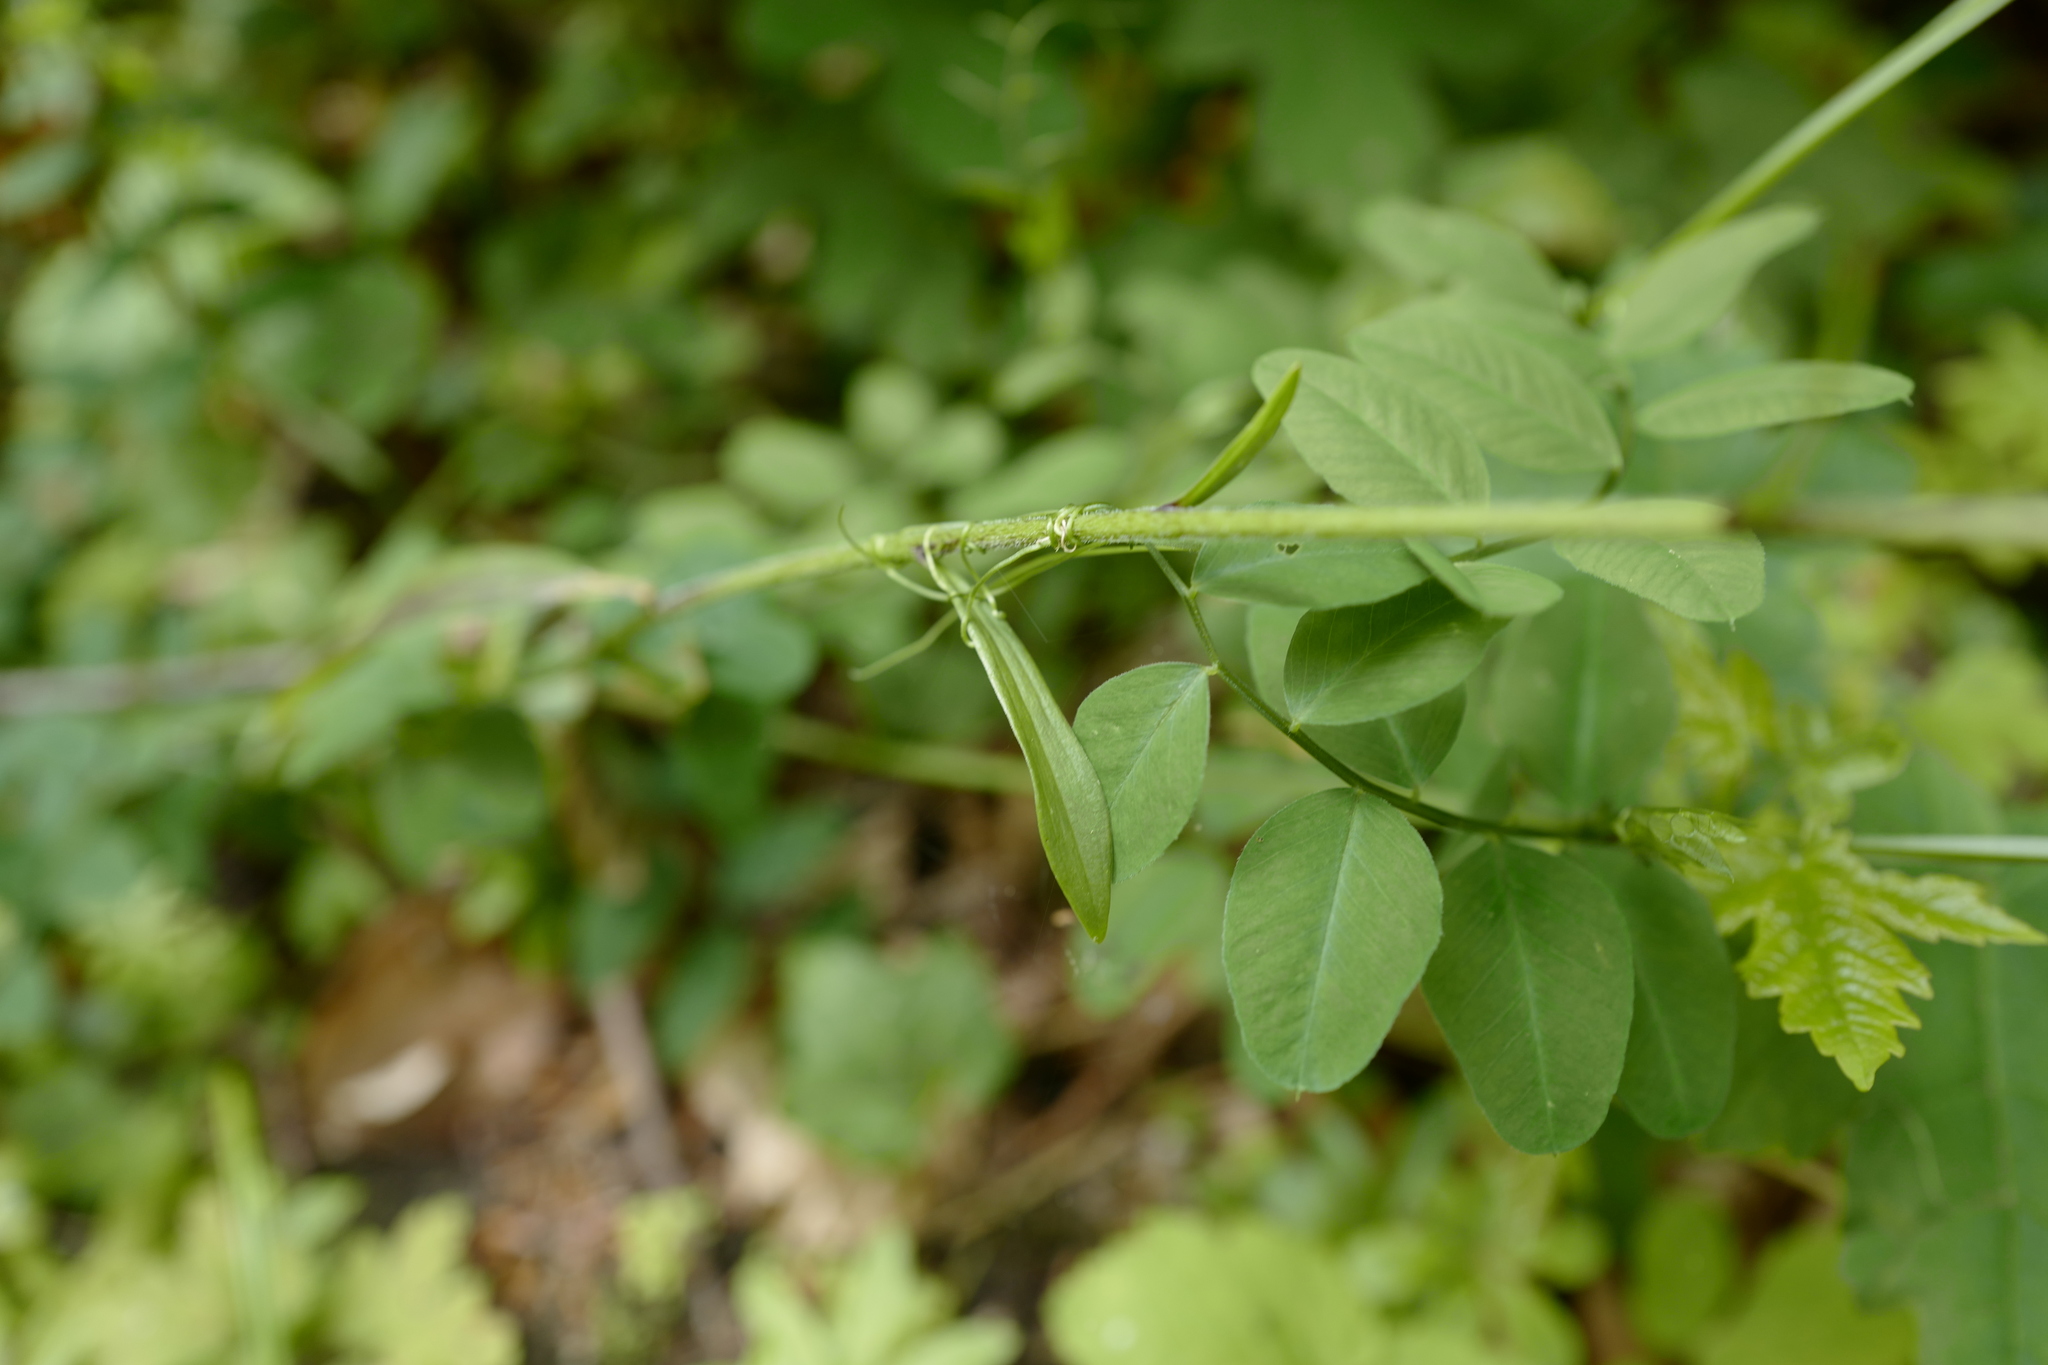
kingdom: Plantae
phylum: Tracheophyta
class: Liliopsida
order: Liliales
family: Liliaceae
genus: Lilium
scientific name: Lilium martagon
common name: Martagon lily
